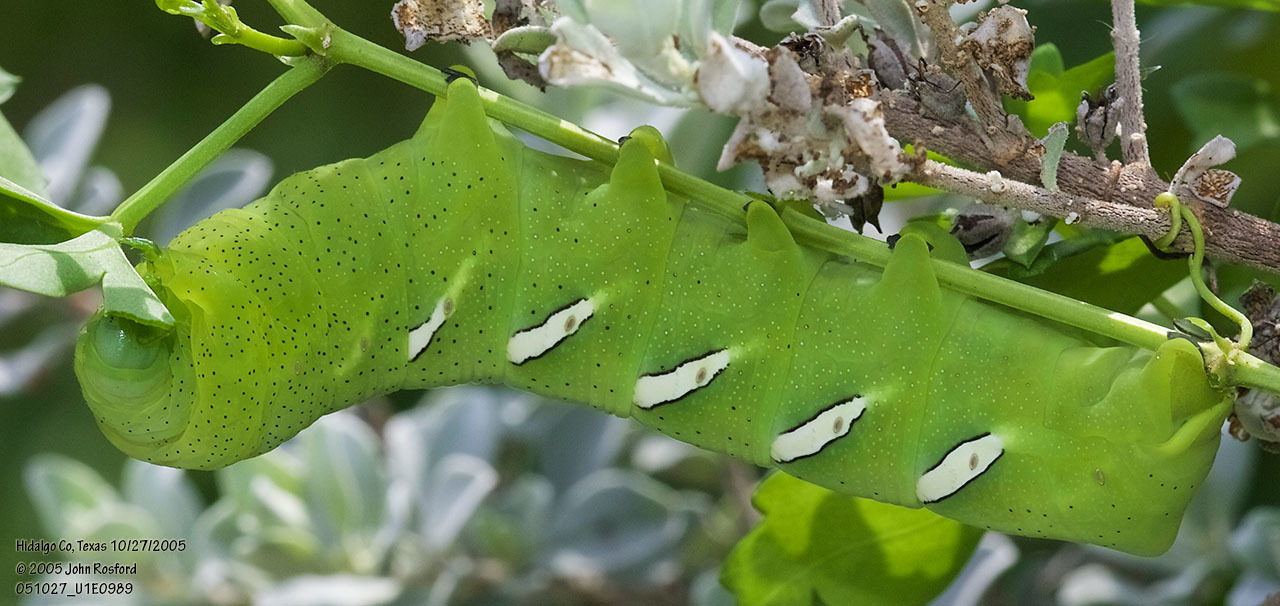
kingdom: Animalia
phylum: Arthropoda
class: Insecta
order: Lepidoptera
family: Sphingidae
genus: Eumorpha
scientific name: Eumorpha vitis
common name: Vine sphinx
